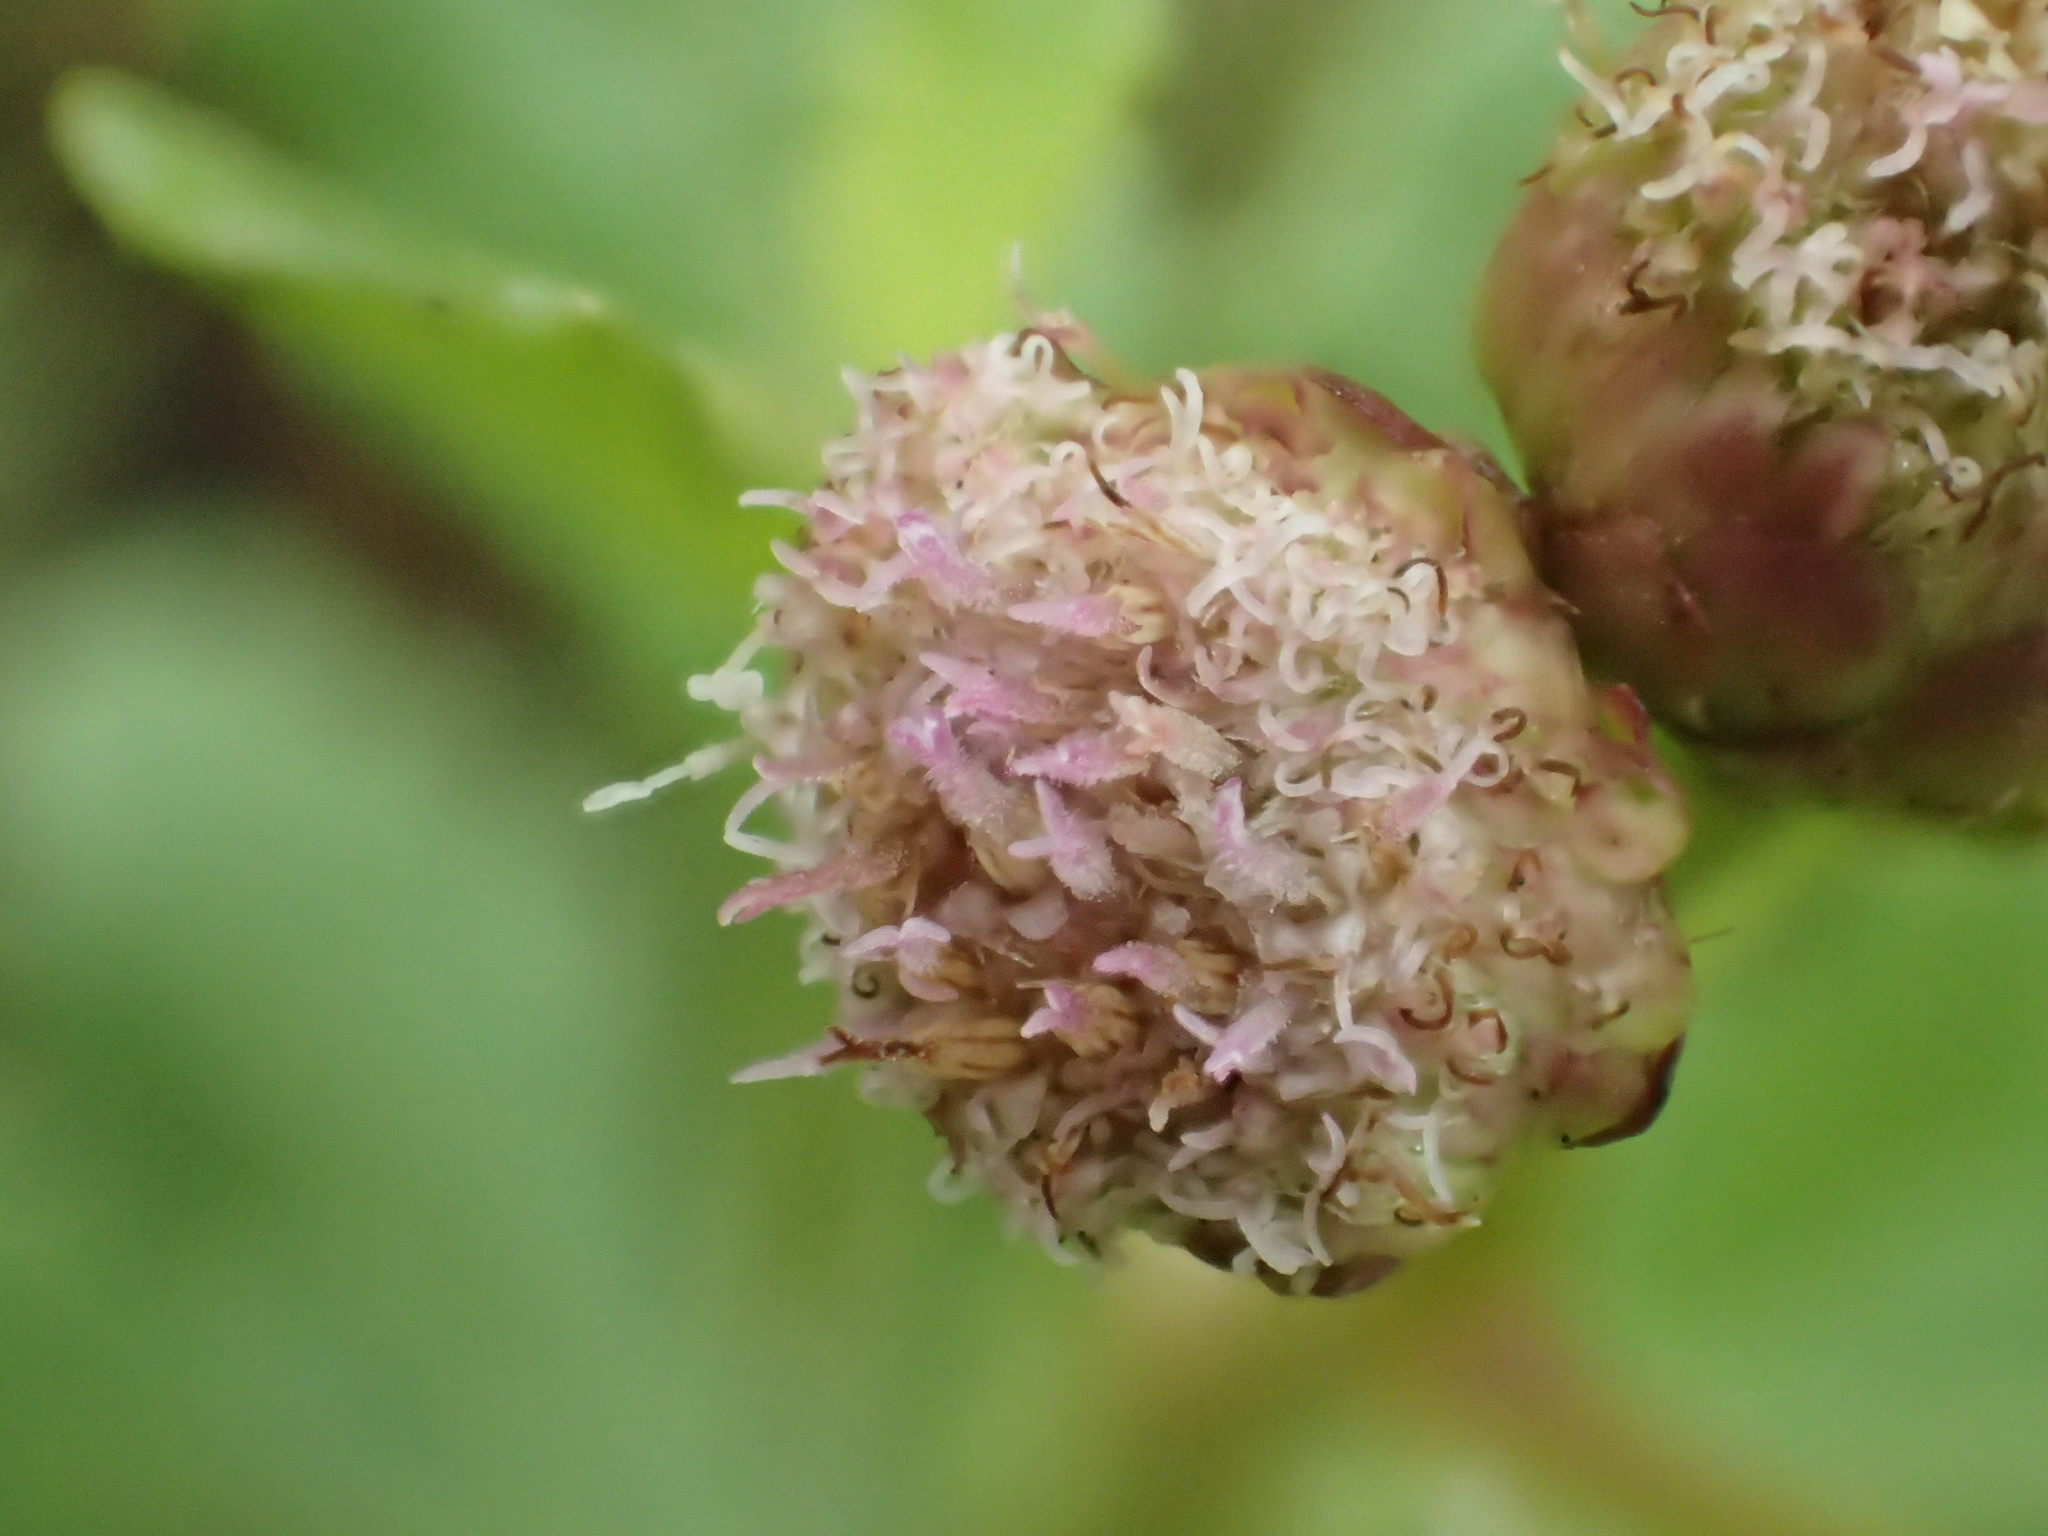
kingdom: Plantae
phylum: Tracheophyta
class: Magnoliopsida
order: Asterales
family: Asteraceae
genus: Pluchea
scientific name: Pluchea pteropoda
